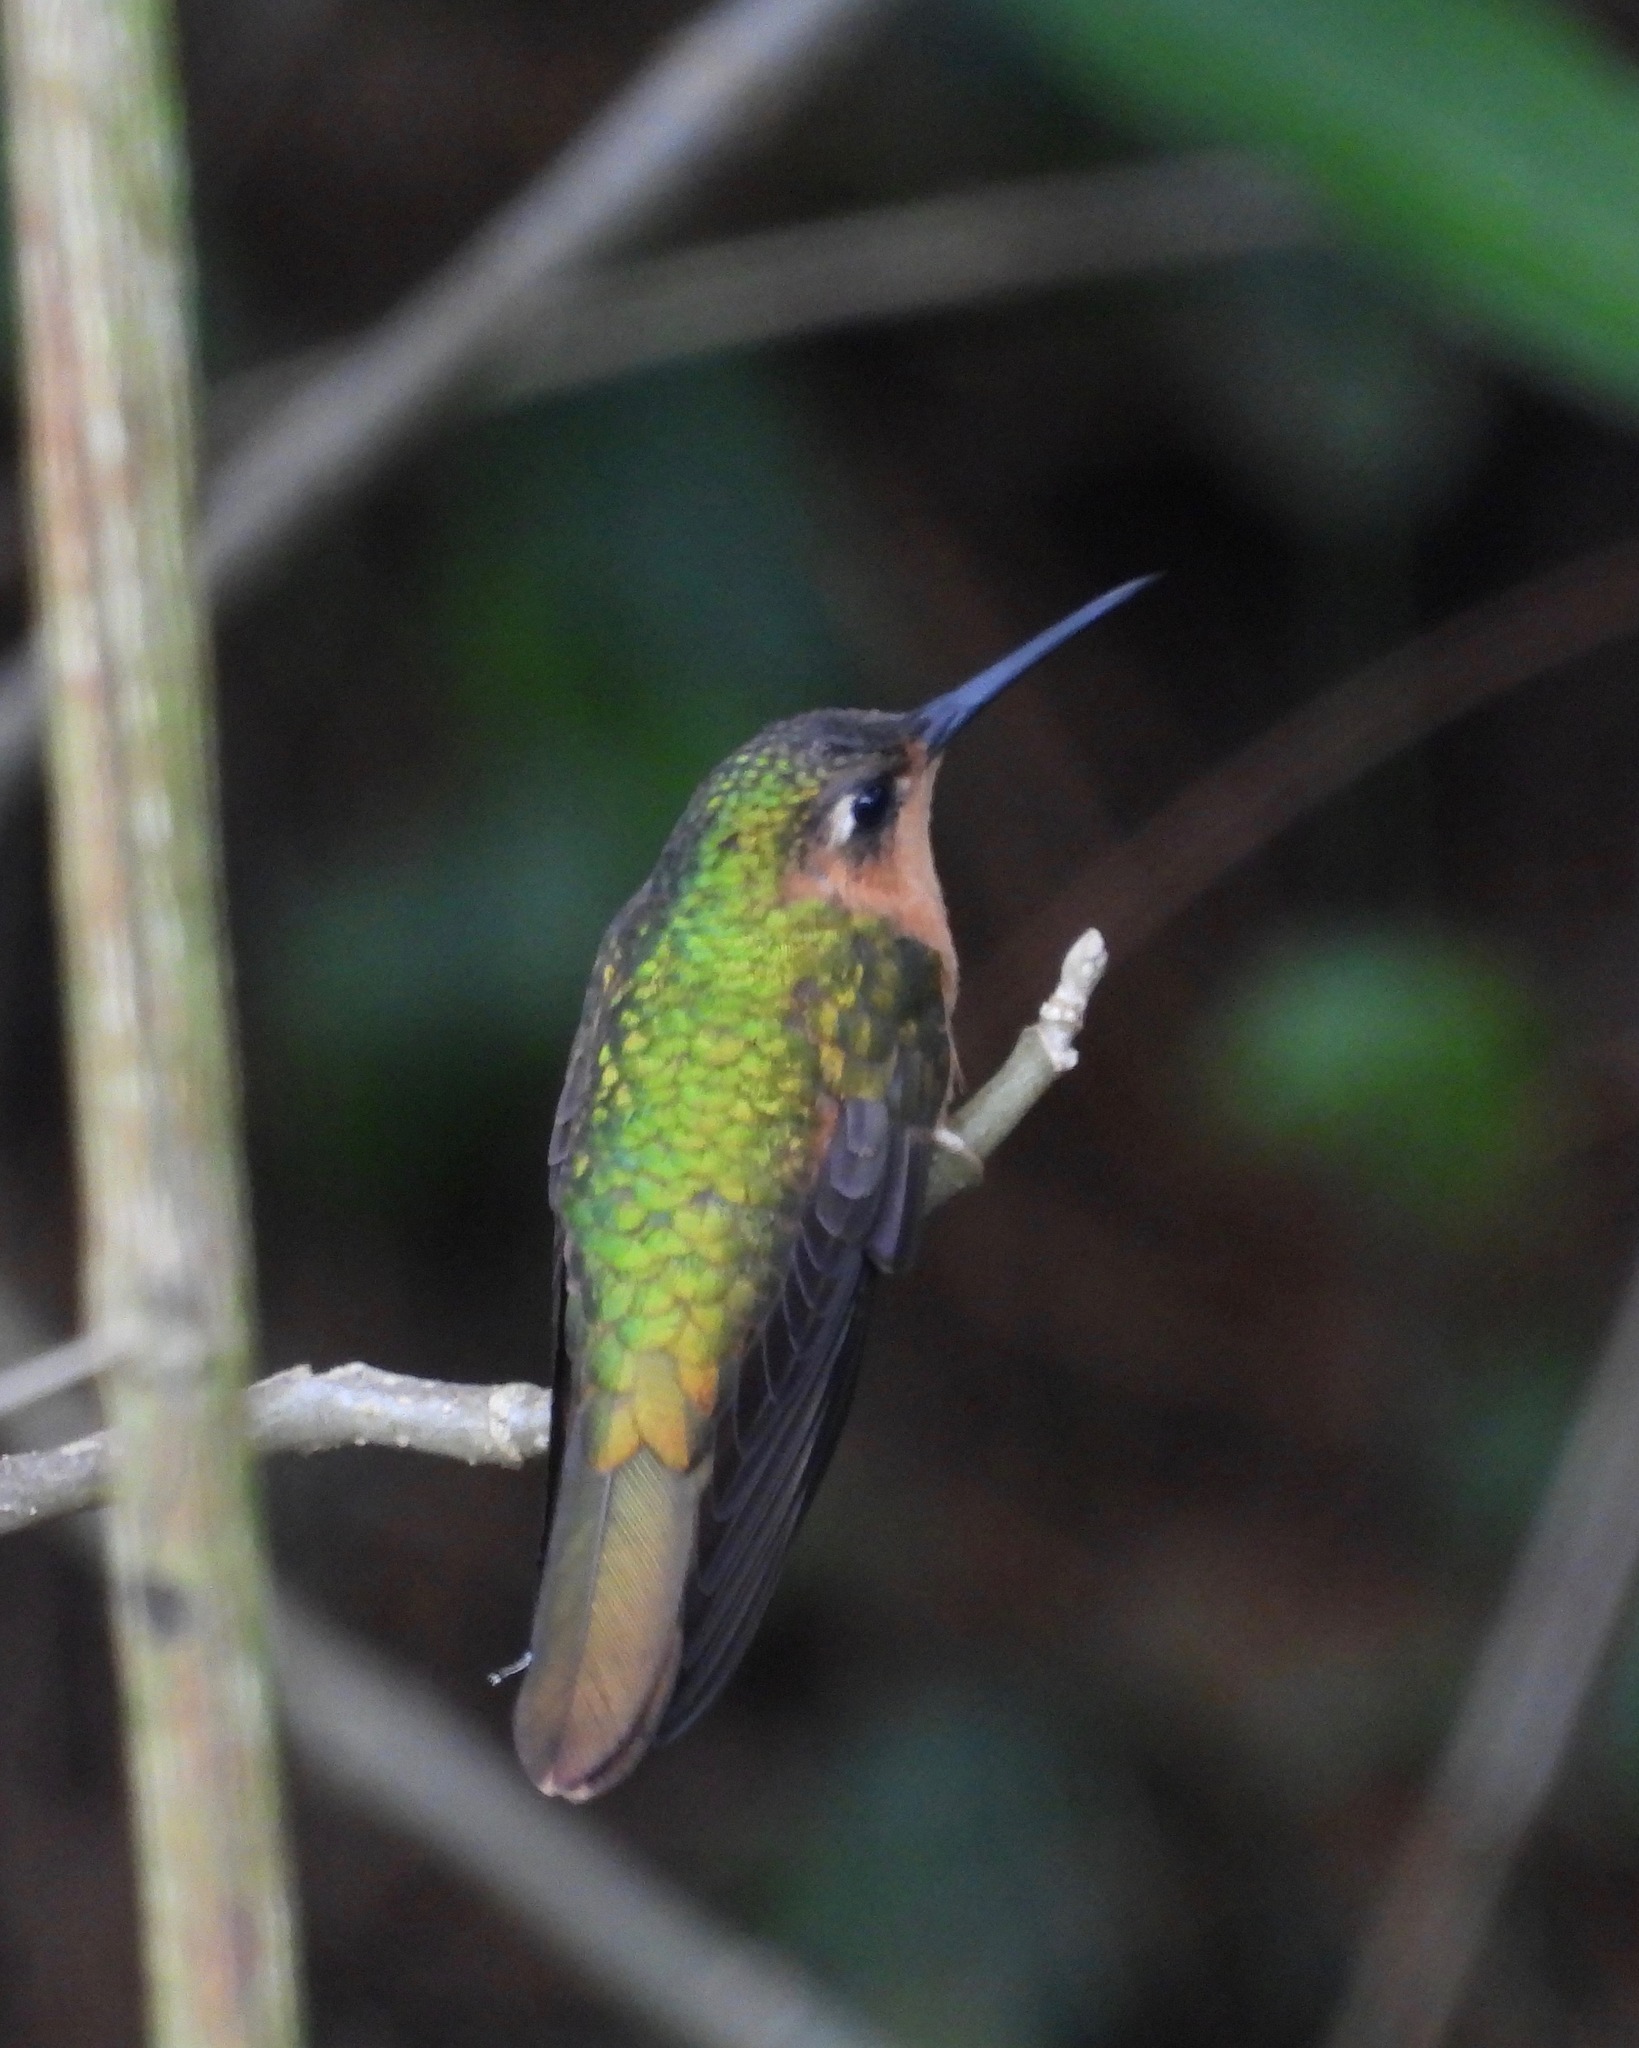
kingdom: Animalia
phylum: Chordata
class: Aves
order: Apodiformes
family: Trochilidae
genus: Pampa
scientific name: Pampa rufa
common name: Rufous sabrewing
